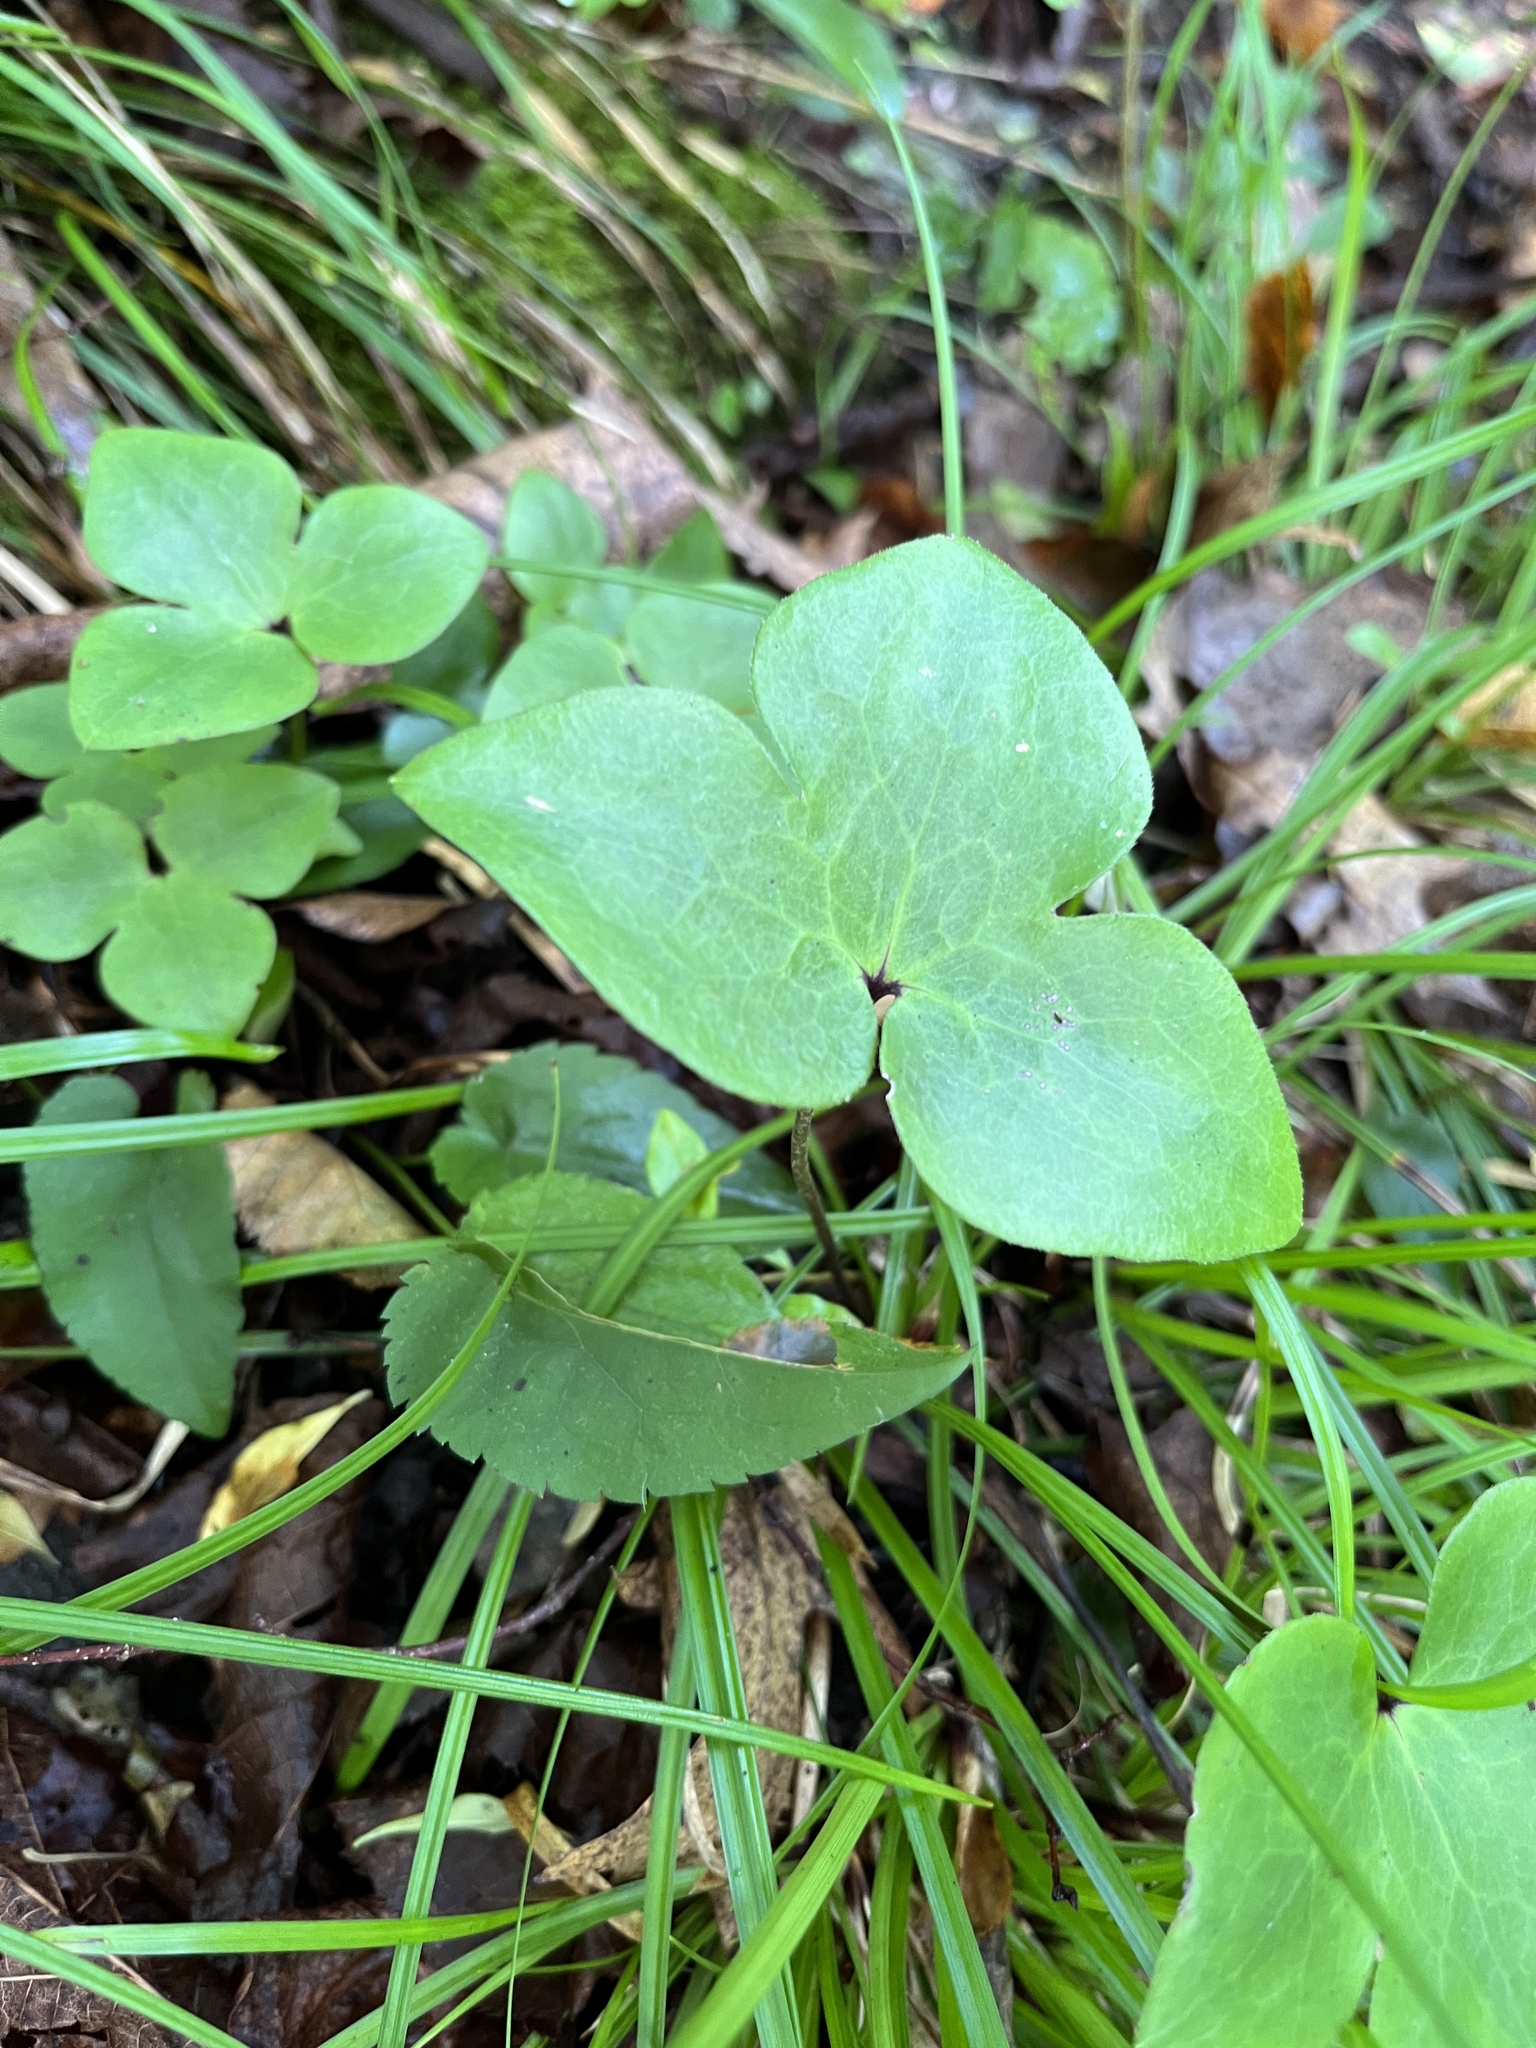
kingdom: Plantae
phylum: Tracheophyta
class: Magnoliopsida
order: Ranunculales
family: Ranunculaceae
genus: Hepatica
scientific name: Hepatica acutiloba
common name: Sharp-lobed hepatica
